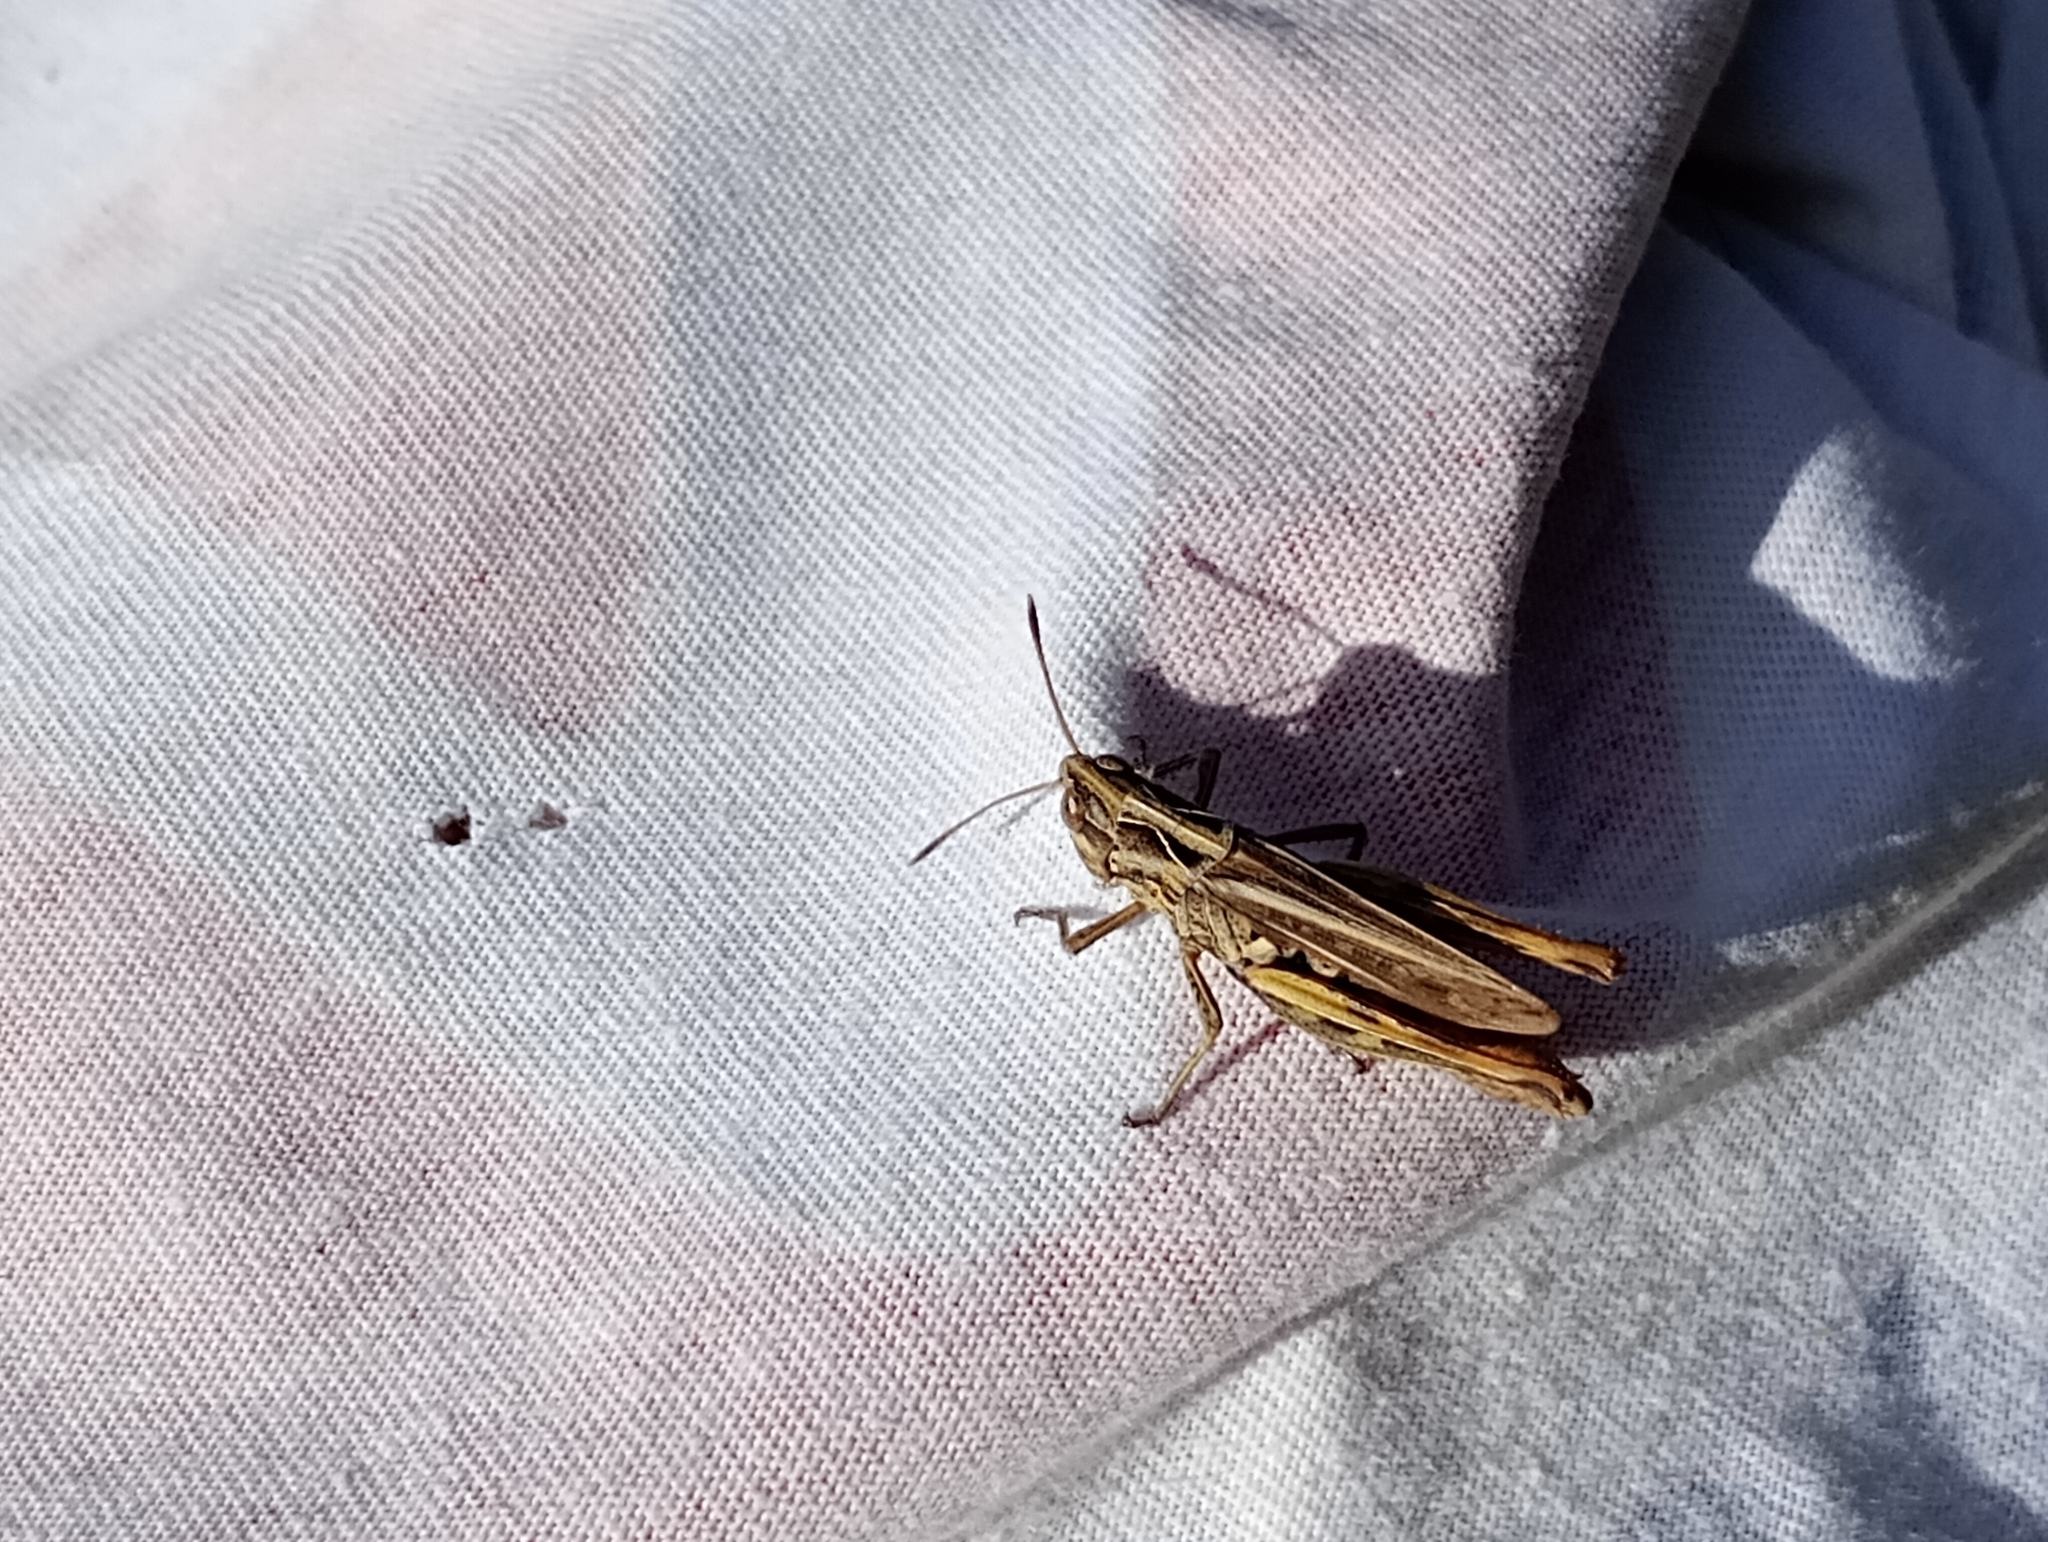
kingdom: Animalia
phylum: Arthropoda
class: Insecta
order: Orthoptera
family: Acrididae
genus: Gomphocerippus
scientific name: Gomphocerippus rufus
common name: Rufous grasshopper
